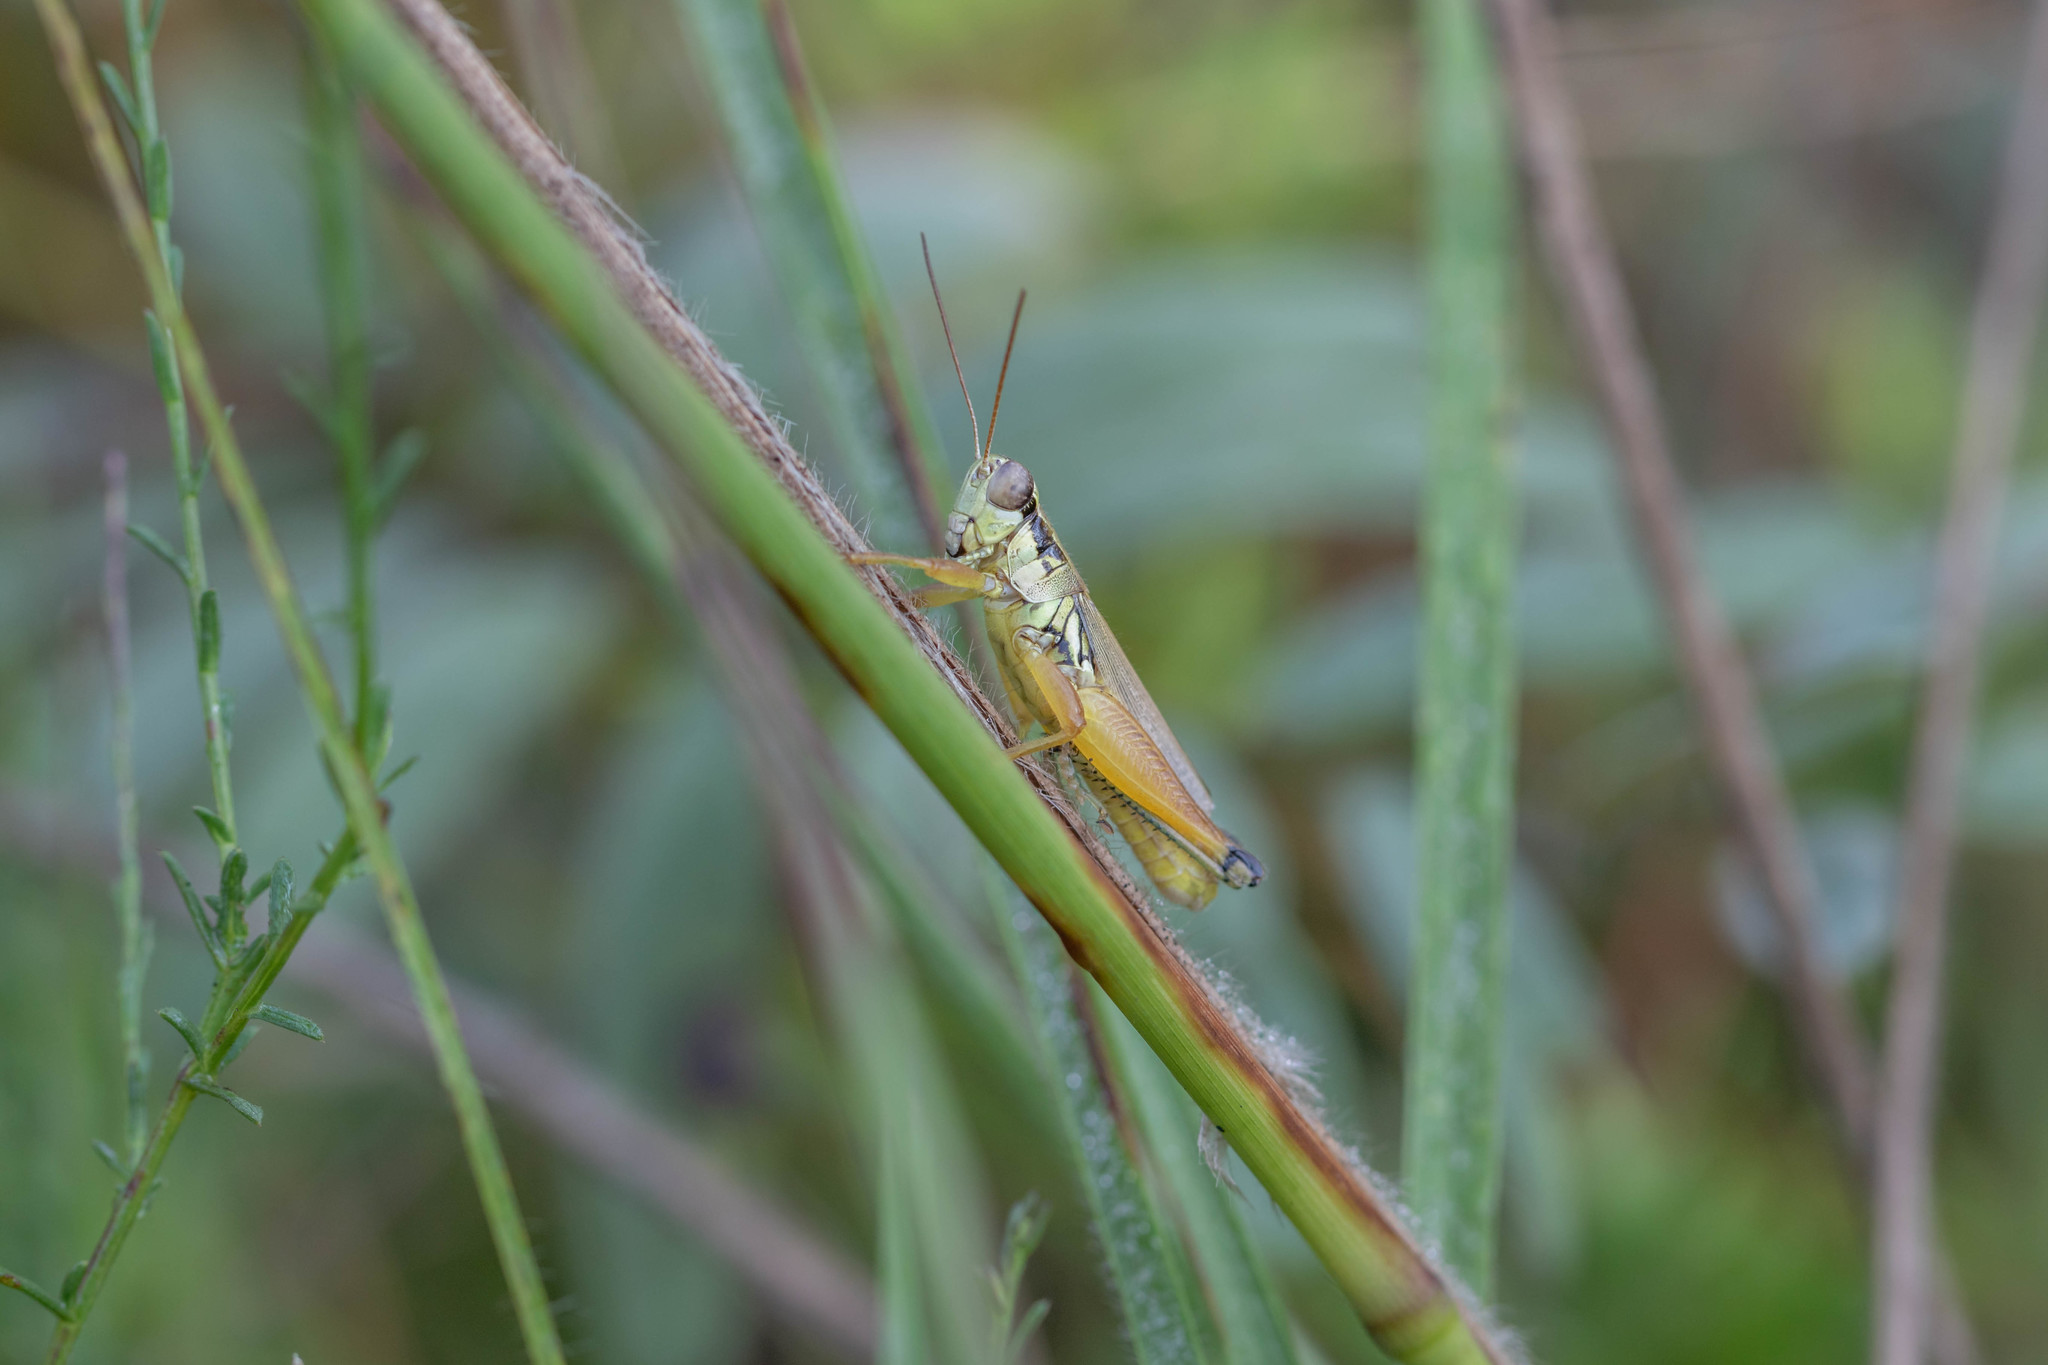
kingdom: Animalia
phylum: Arthropoda
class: Insecta
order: Orthoptera
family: Acrididae
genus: Paroxya
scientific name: Paroxya atlantica
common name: Atlantic grasshopper
